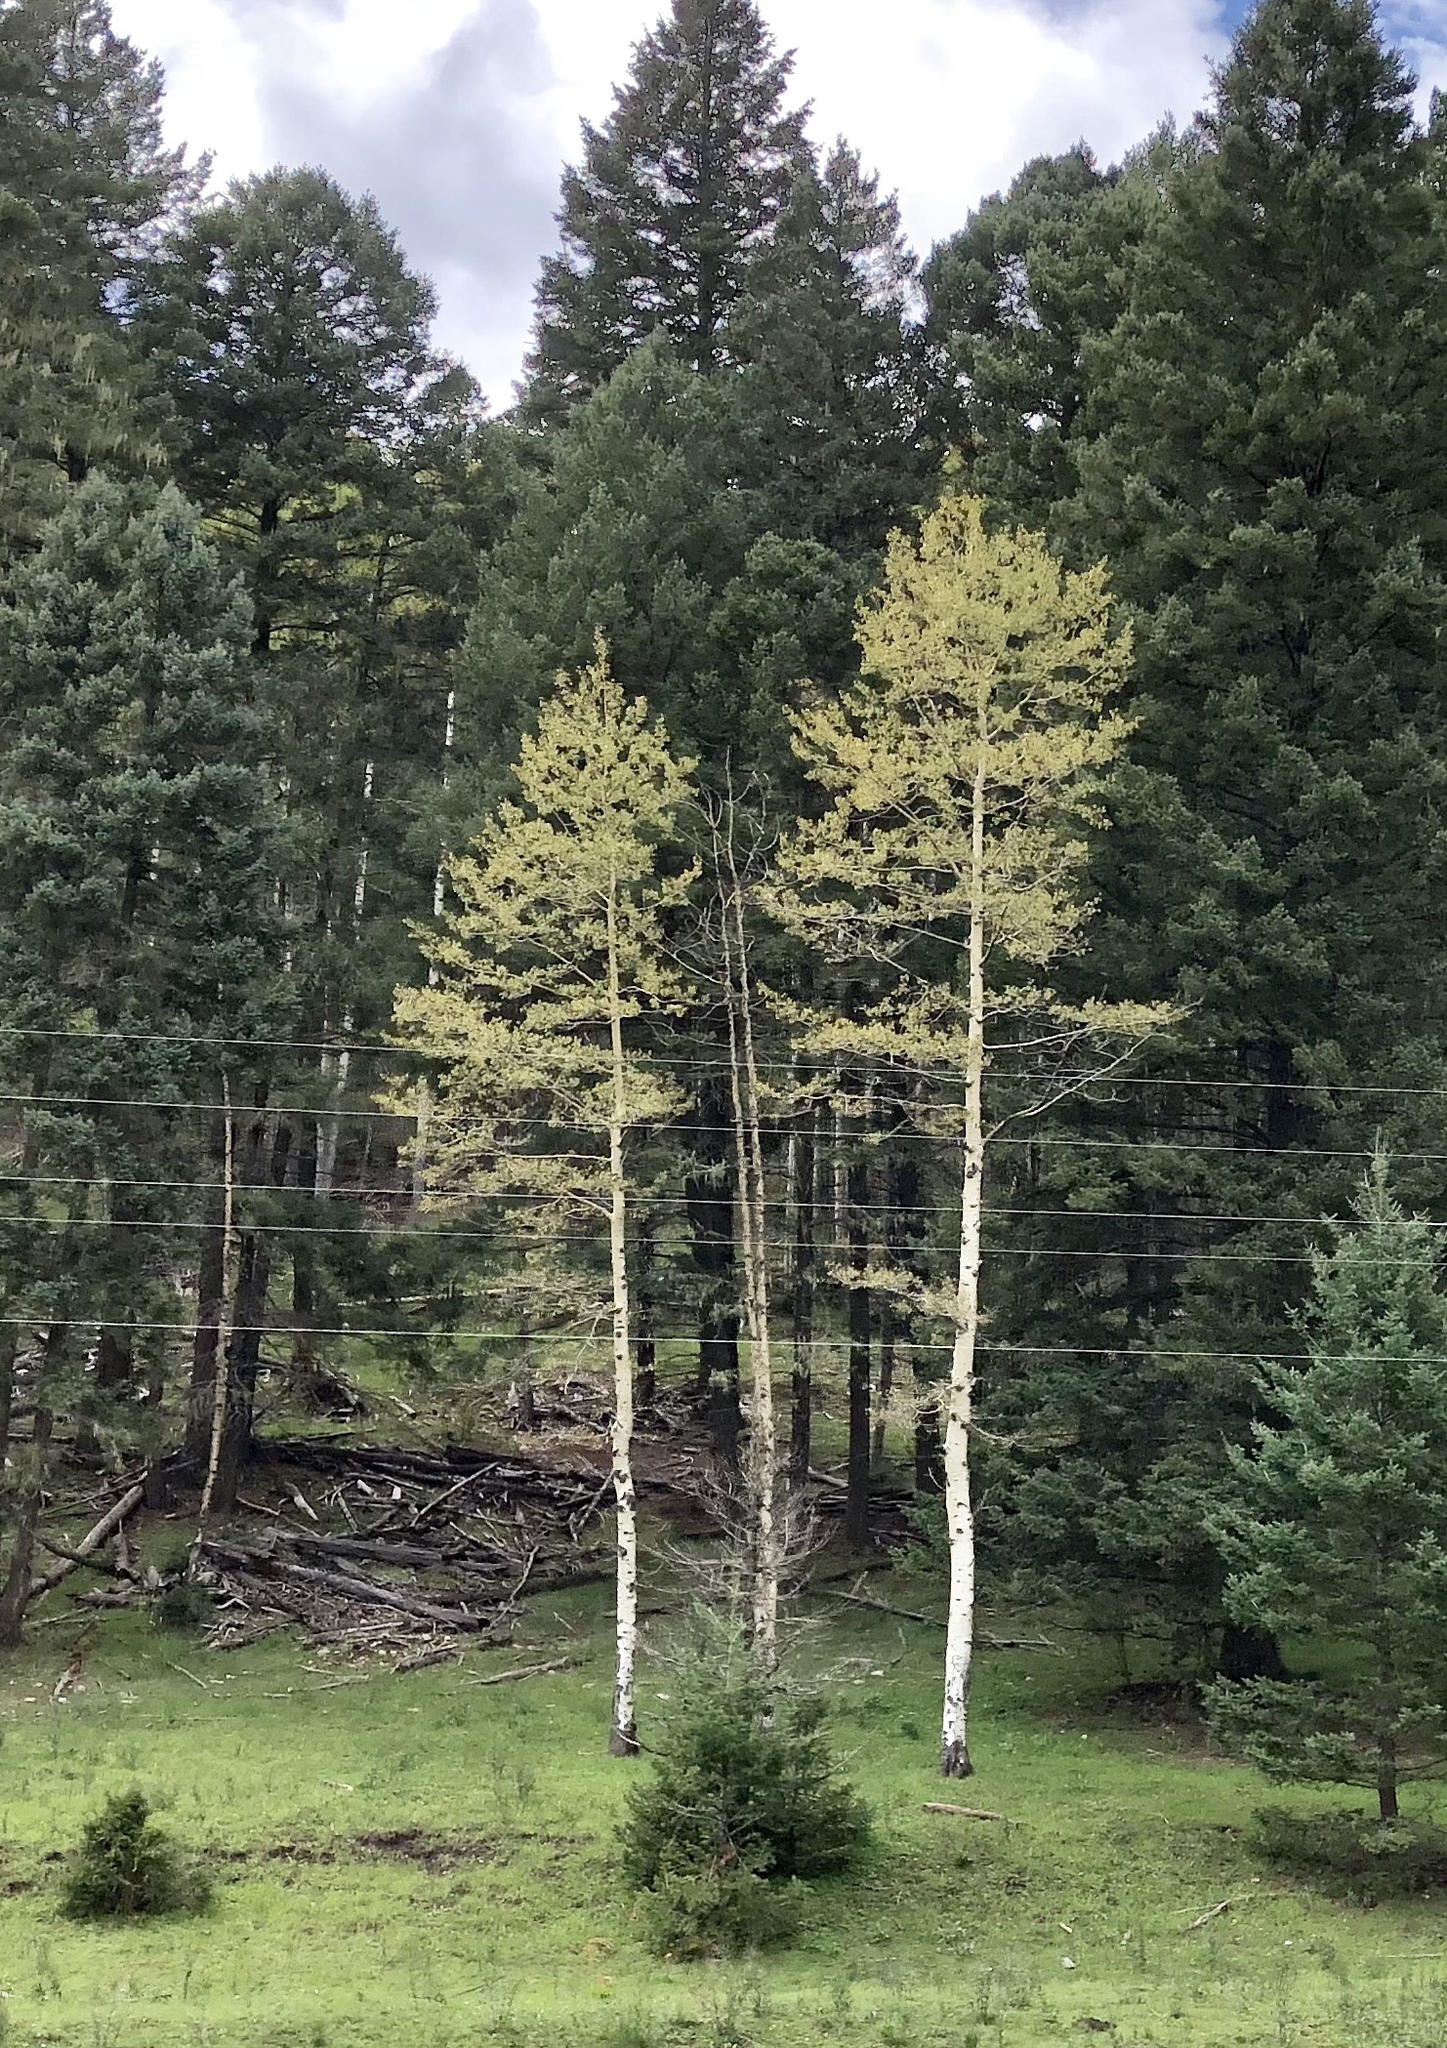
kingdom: Plantae
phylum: Tracheophyta
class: Magnoliopsida
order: Malpighiales
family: Salicaceae
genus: Populus
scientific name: Populus tremuloides
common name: Quaking aspen
